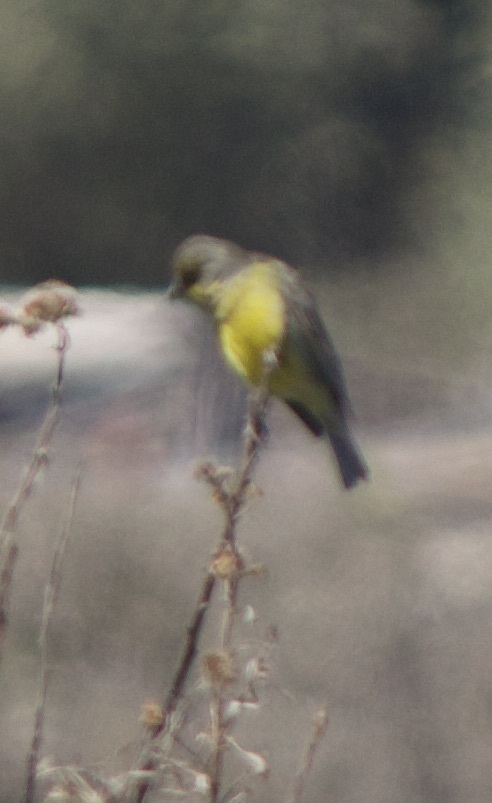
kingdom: Animalia
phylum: Chordata
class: Aves
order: Passeriformes
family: Thraupidae
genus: Sicalis
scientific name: Sicalis luteola
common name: Grassland yellow-finch
